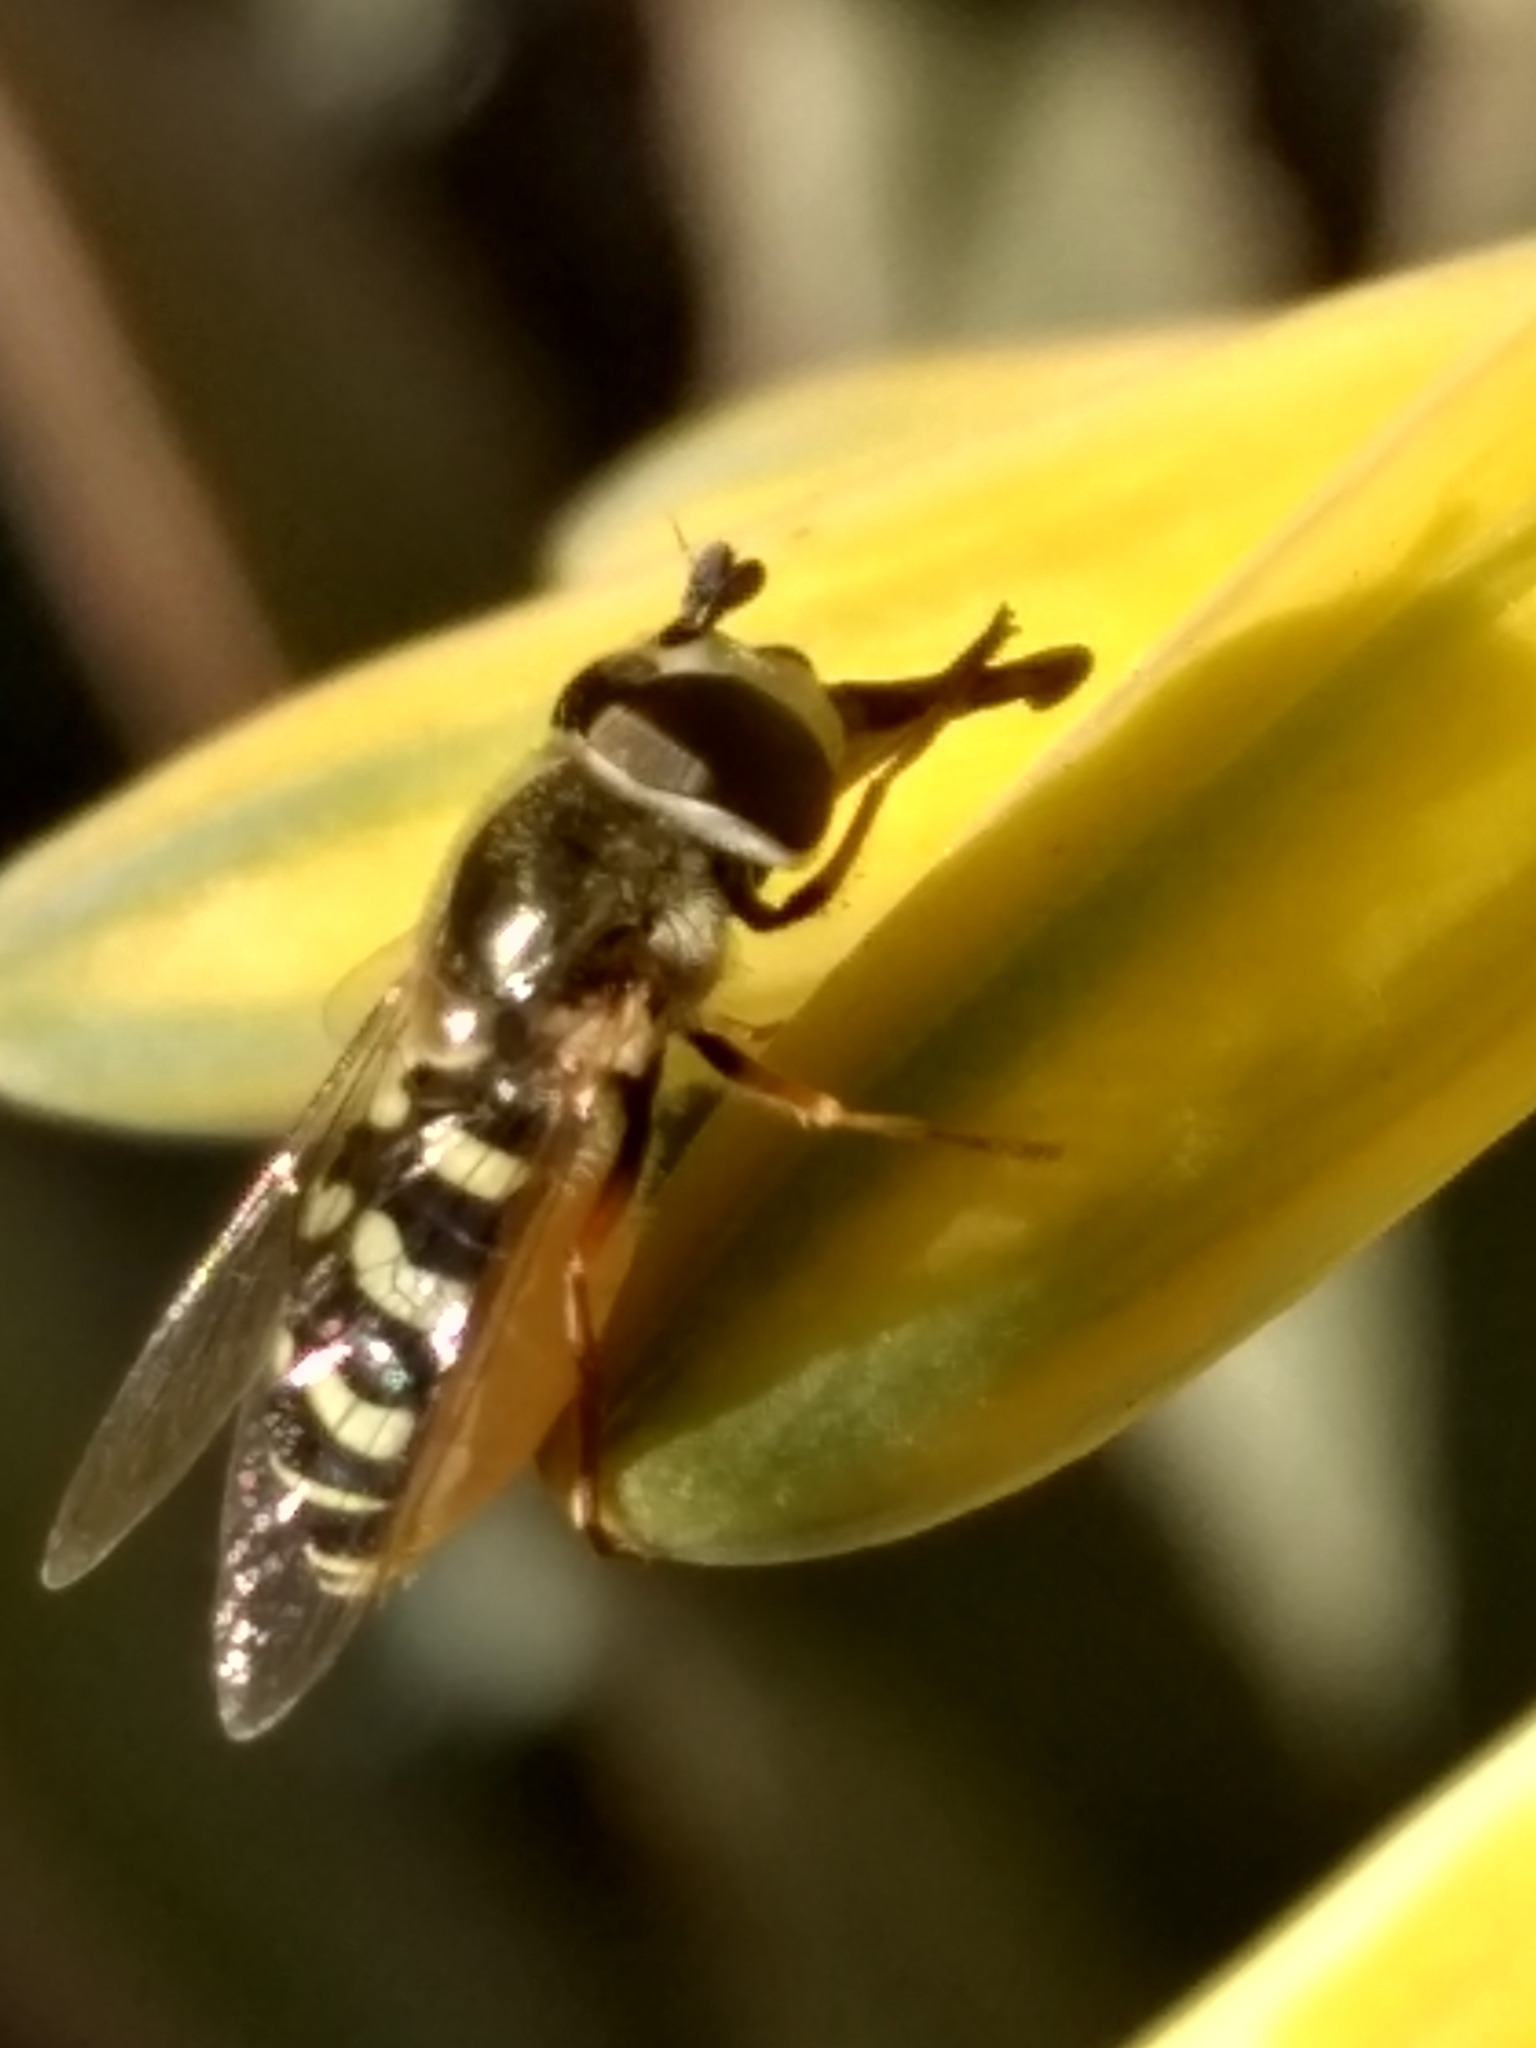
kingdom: Animalia
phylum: Arthropoda
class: Insecta
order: Diptera
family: Syrphidae
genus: Eupeodes
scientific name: Eupeodes volucris
